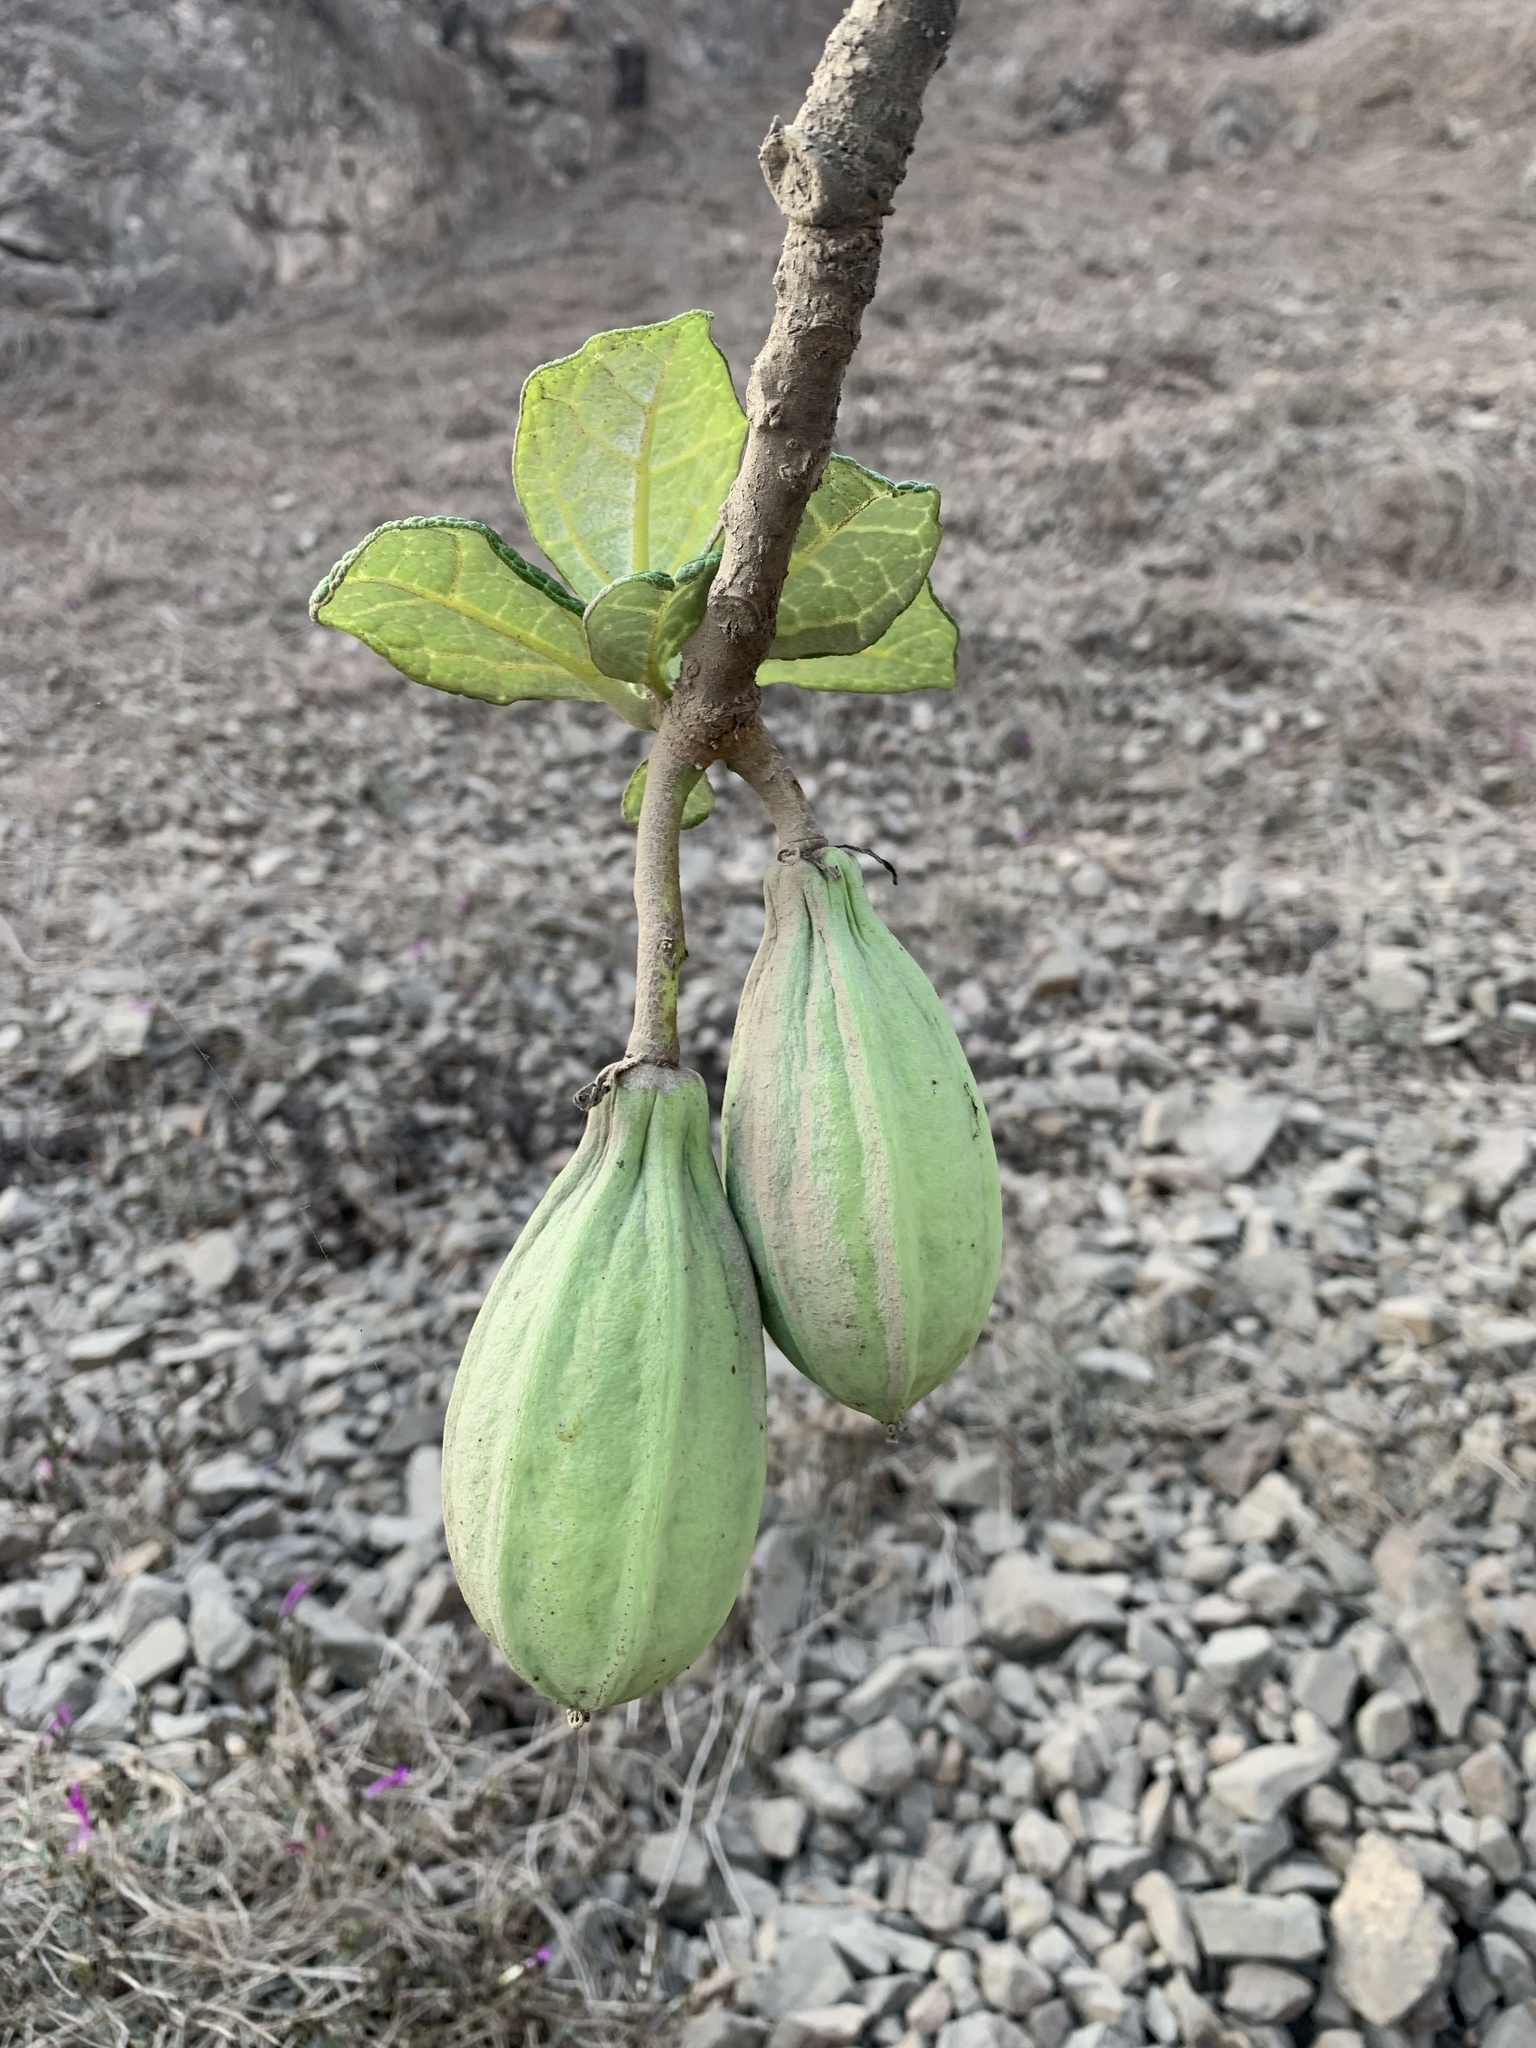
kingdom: Plantae
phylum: Tracheophyta
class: Magnoliopsida
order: Brassicales
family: Caricaceae
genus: Vasconcellea
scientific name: Vasconcellea candicans
